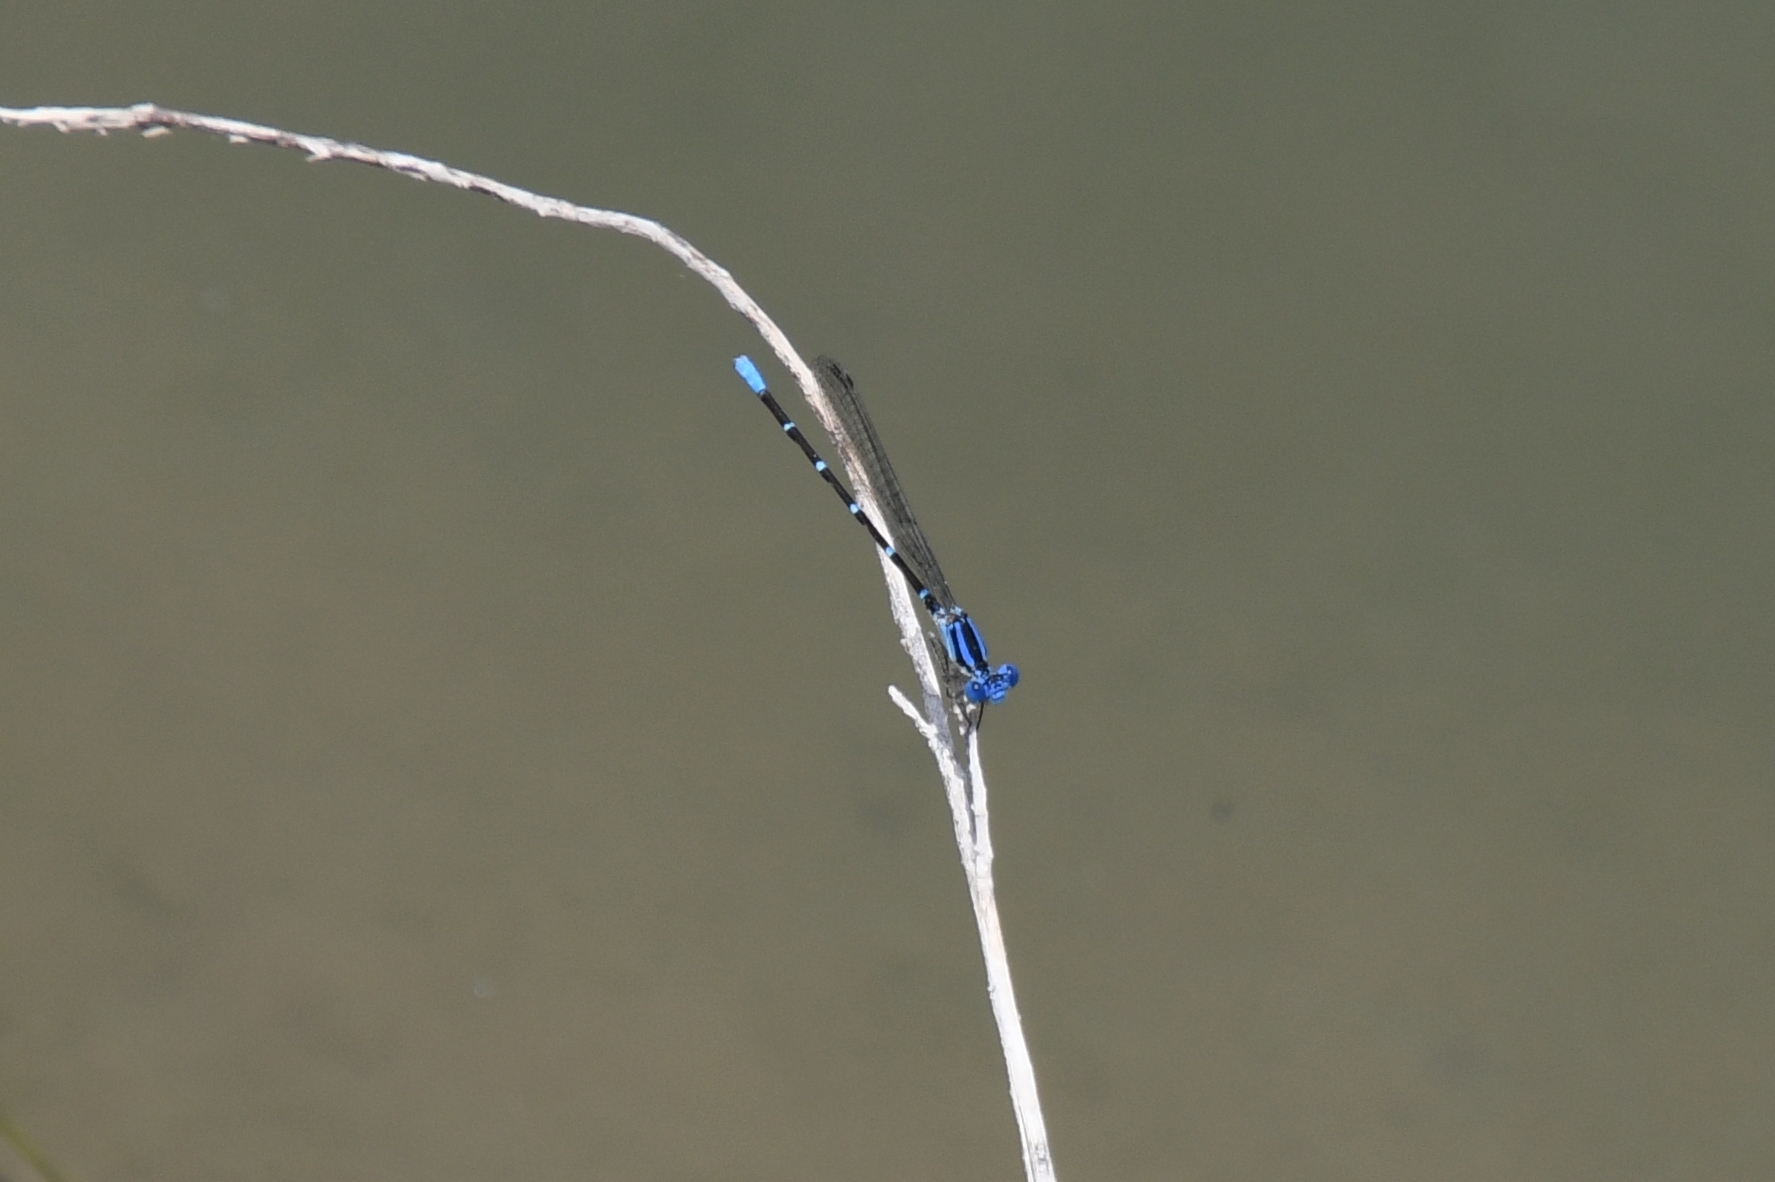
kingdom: Animalia
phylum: Arthropoda
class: Insecta
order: Odonata
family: Coenagrionidae
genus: Argia
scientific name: Argia sedula
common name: Blue-ringed dancer
